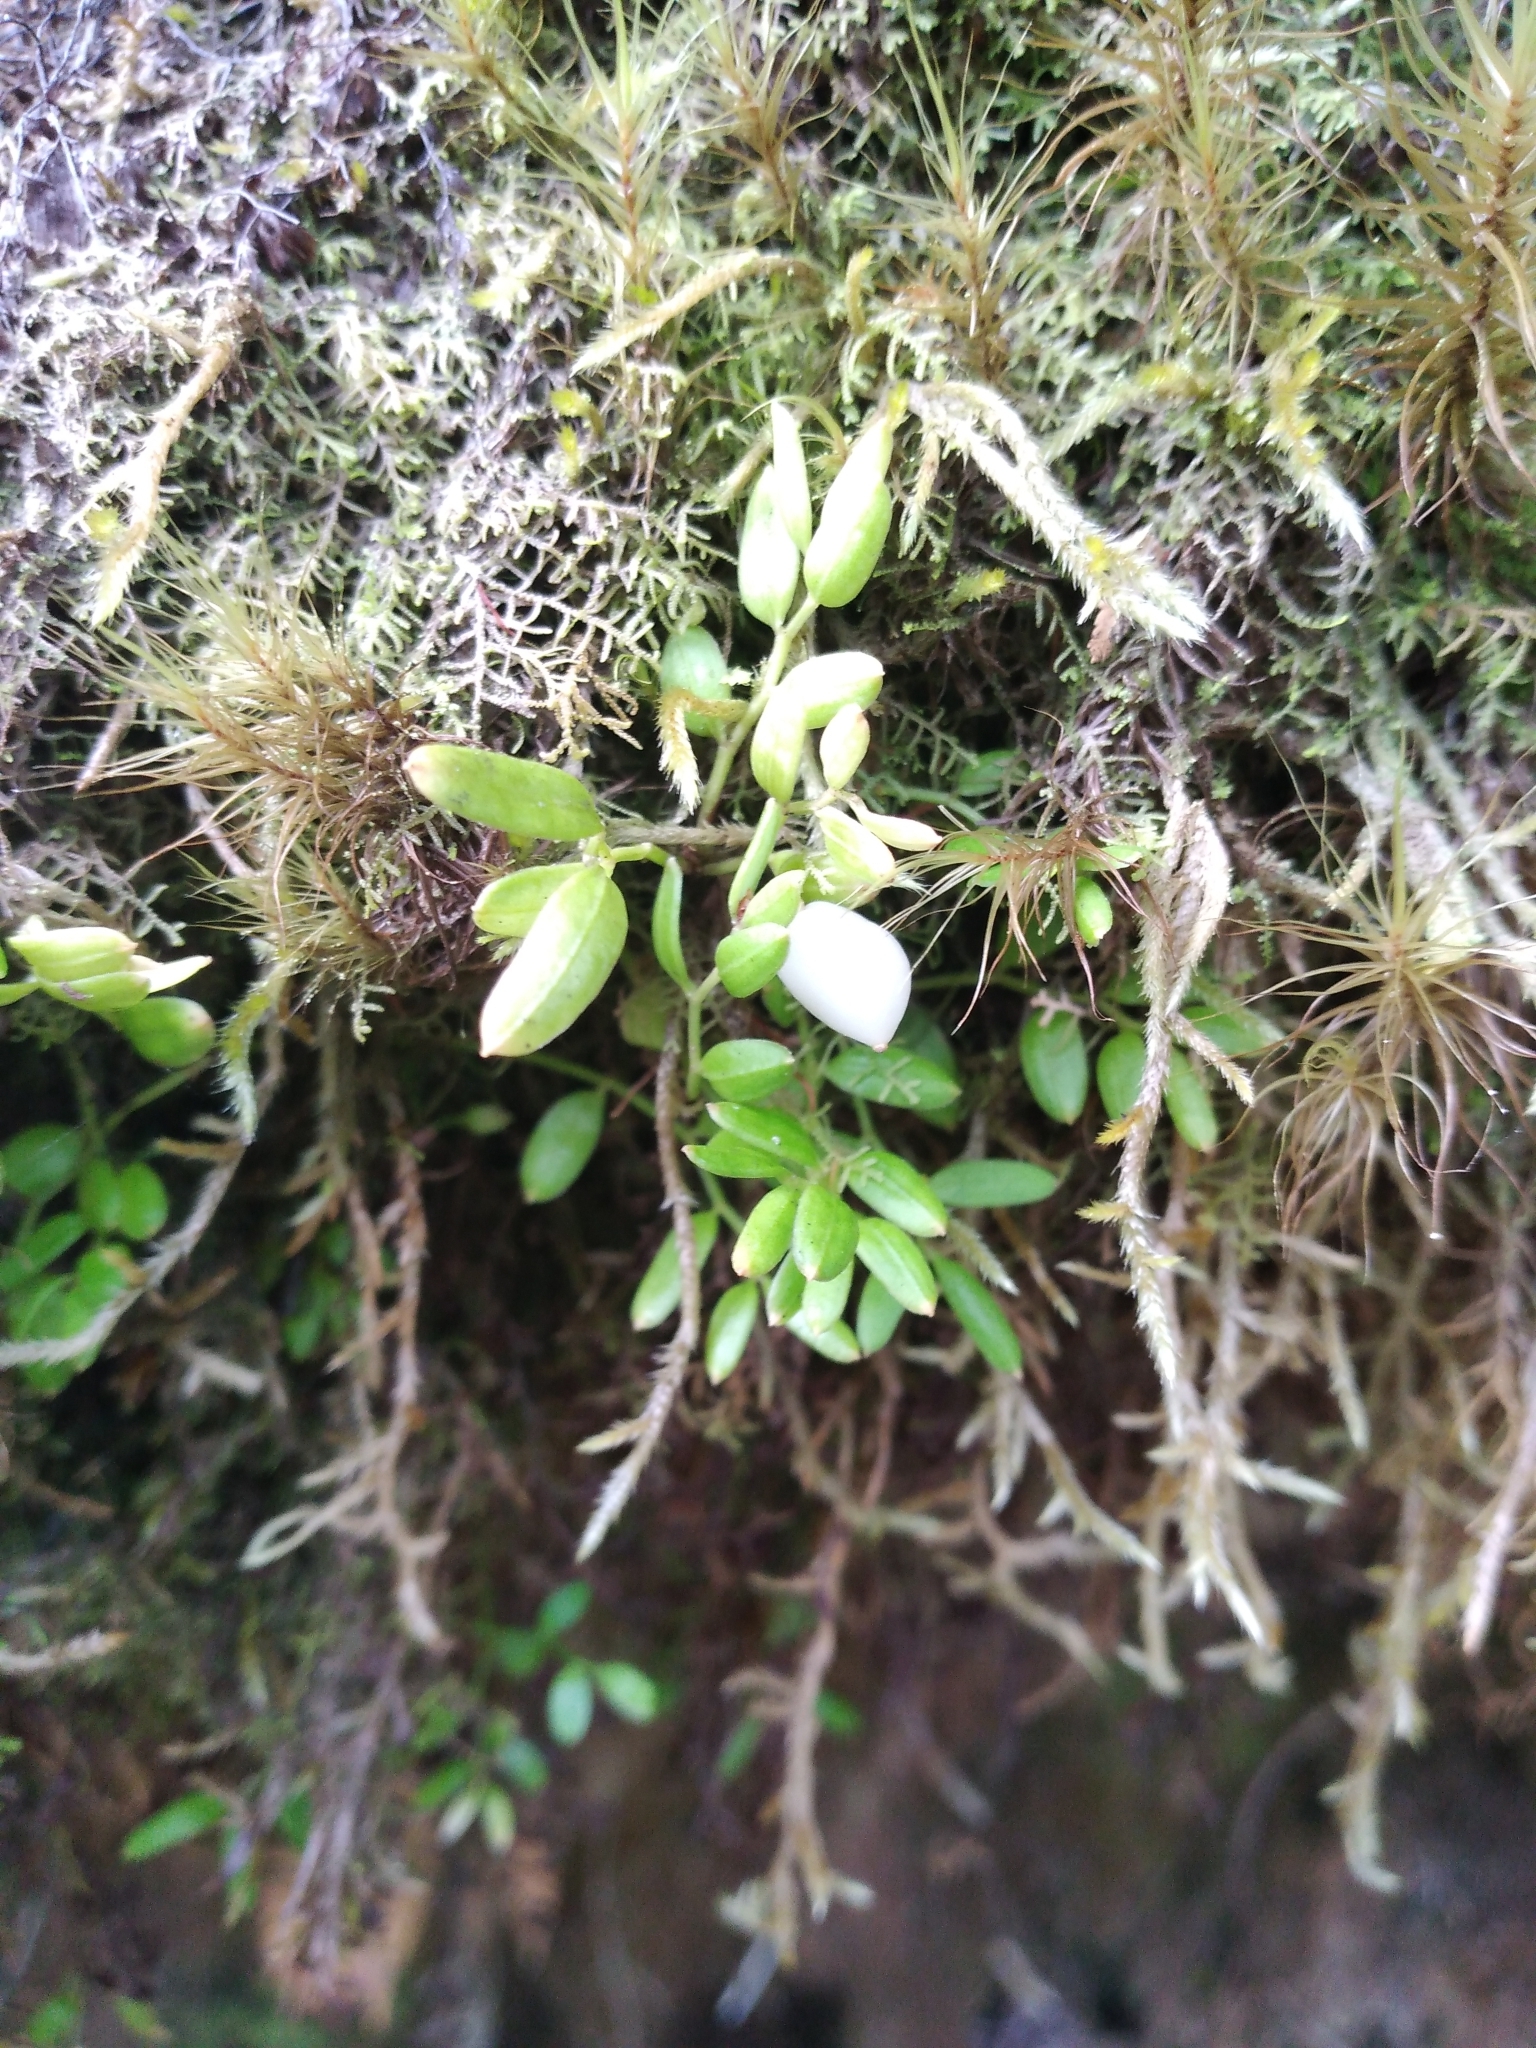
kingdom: Plantae
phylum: Tracheophyta
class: Liliopsida
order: Liliales
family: Alstroemeriaceae
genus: Luzuriaga
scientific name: Luzuriaga parviflora
